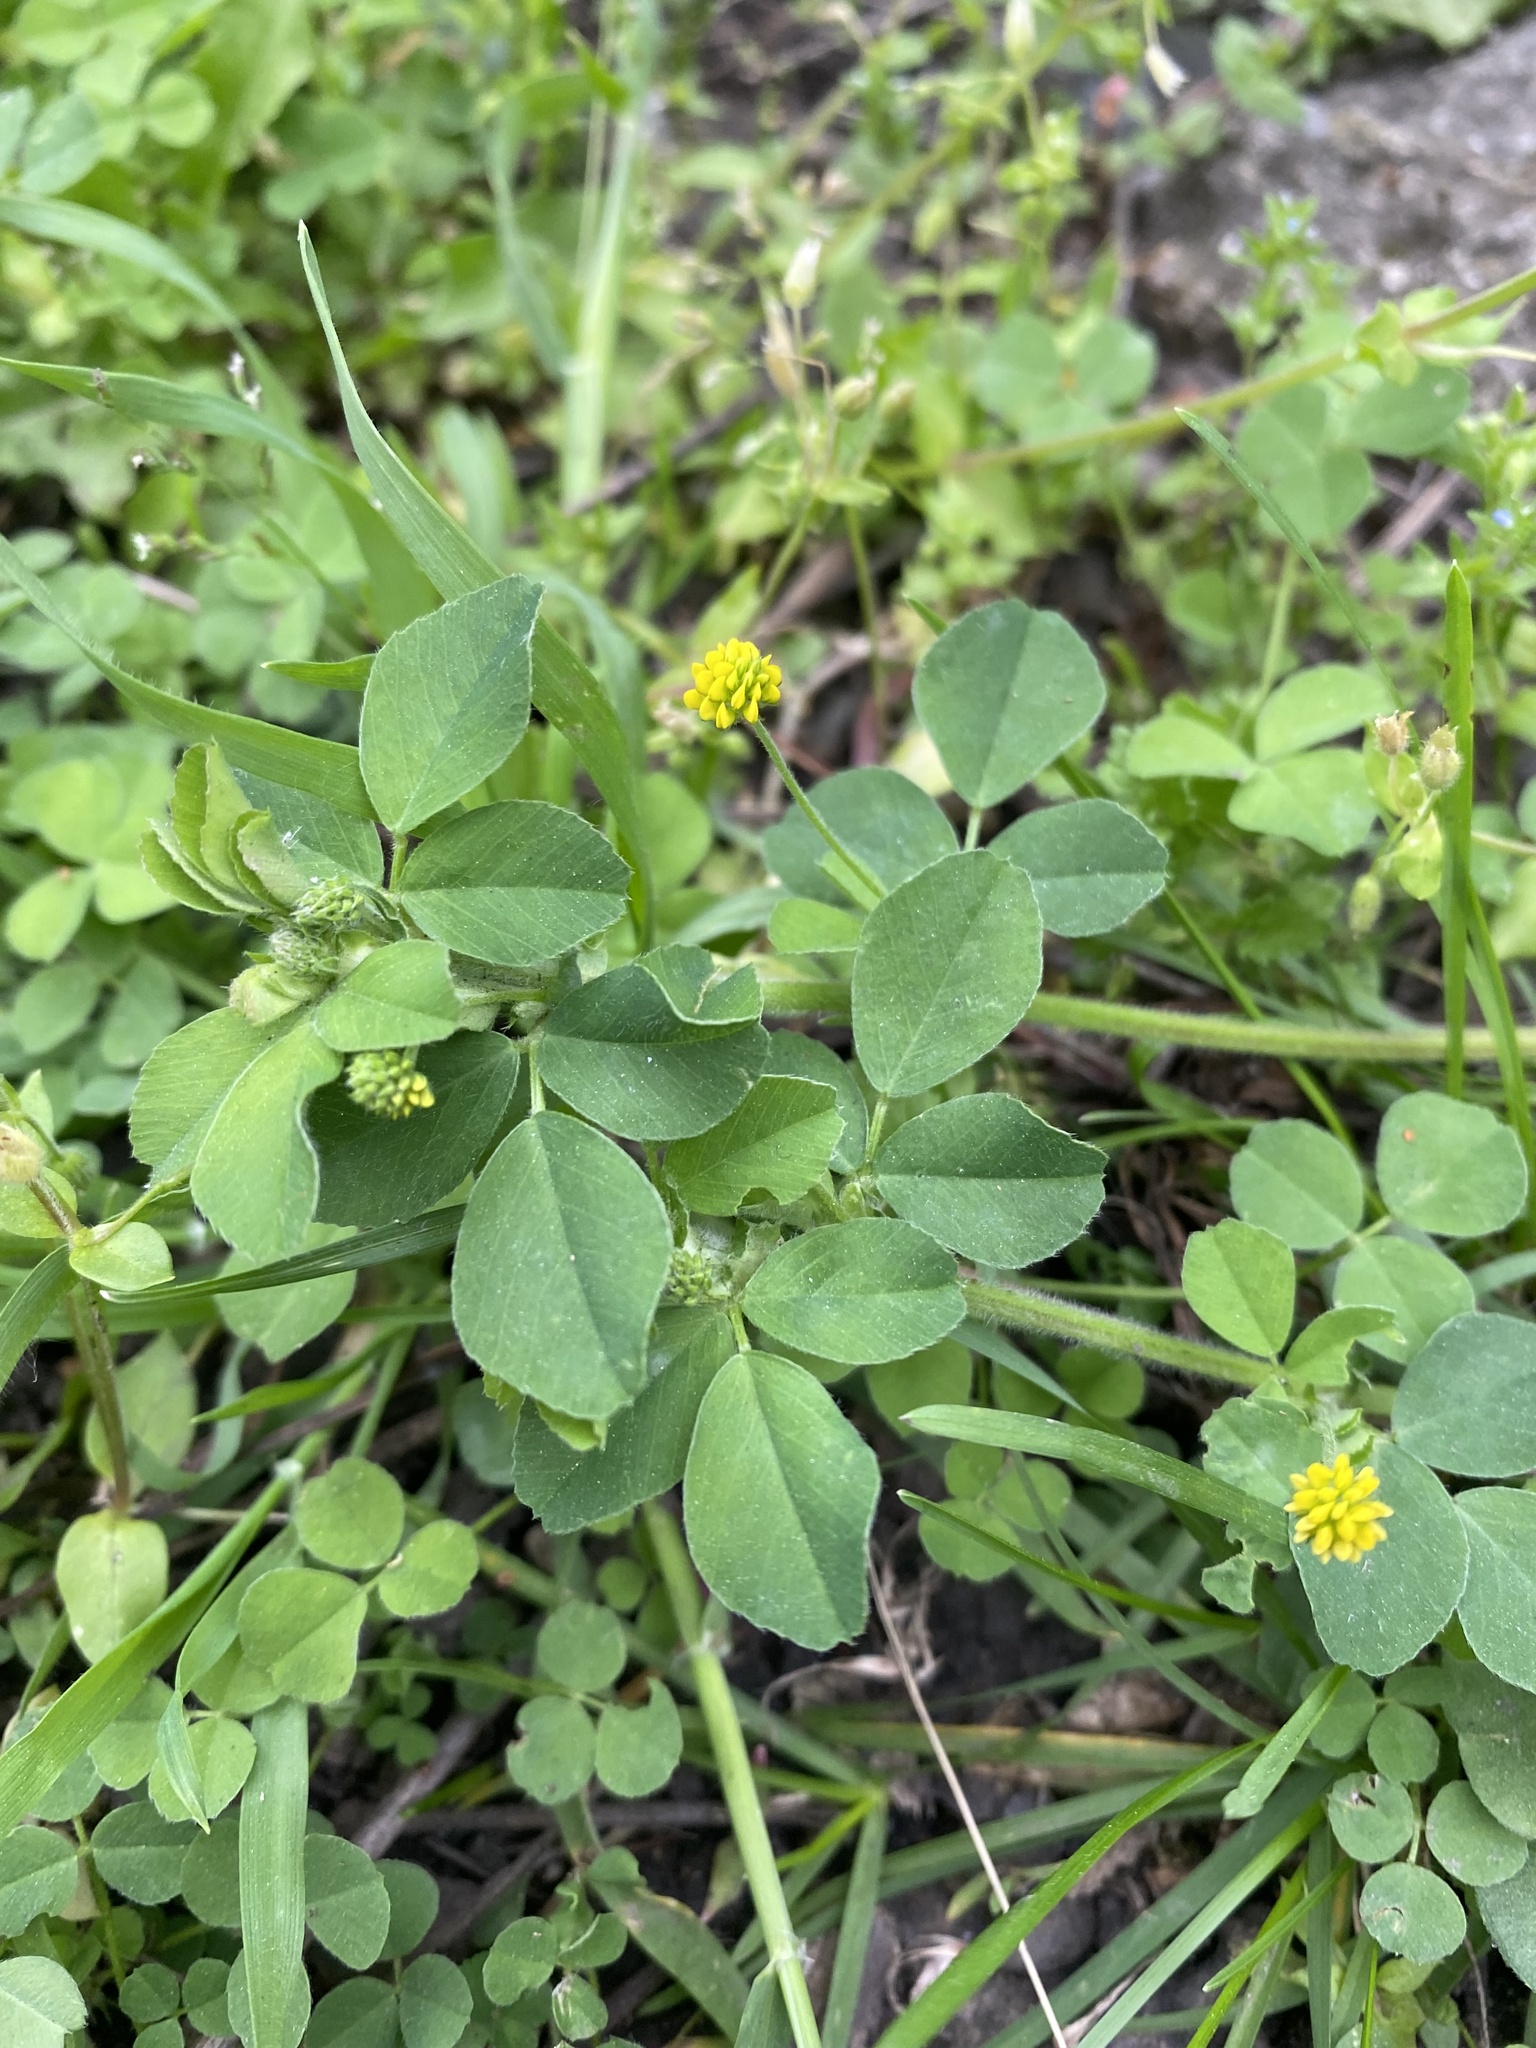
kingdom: Plantae
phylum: Tracheophyta
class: Magnoliopsida
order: Fabales
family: Fabaceae
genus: Medicago
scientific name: Medicago lupulina
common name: Black medick
